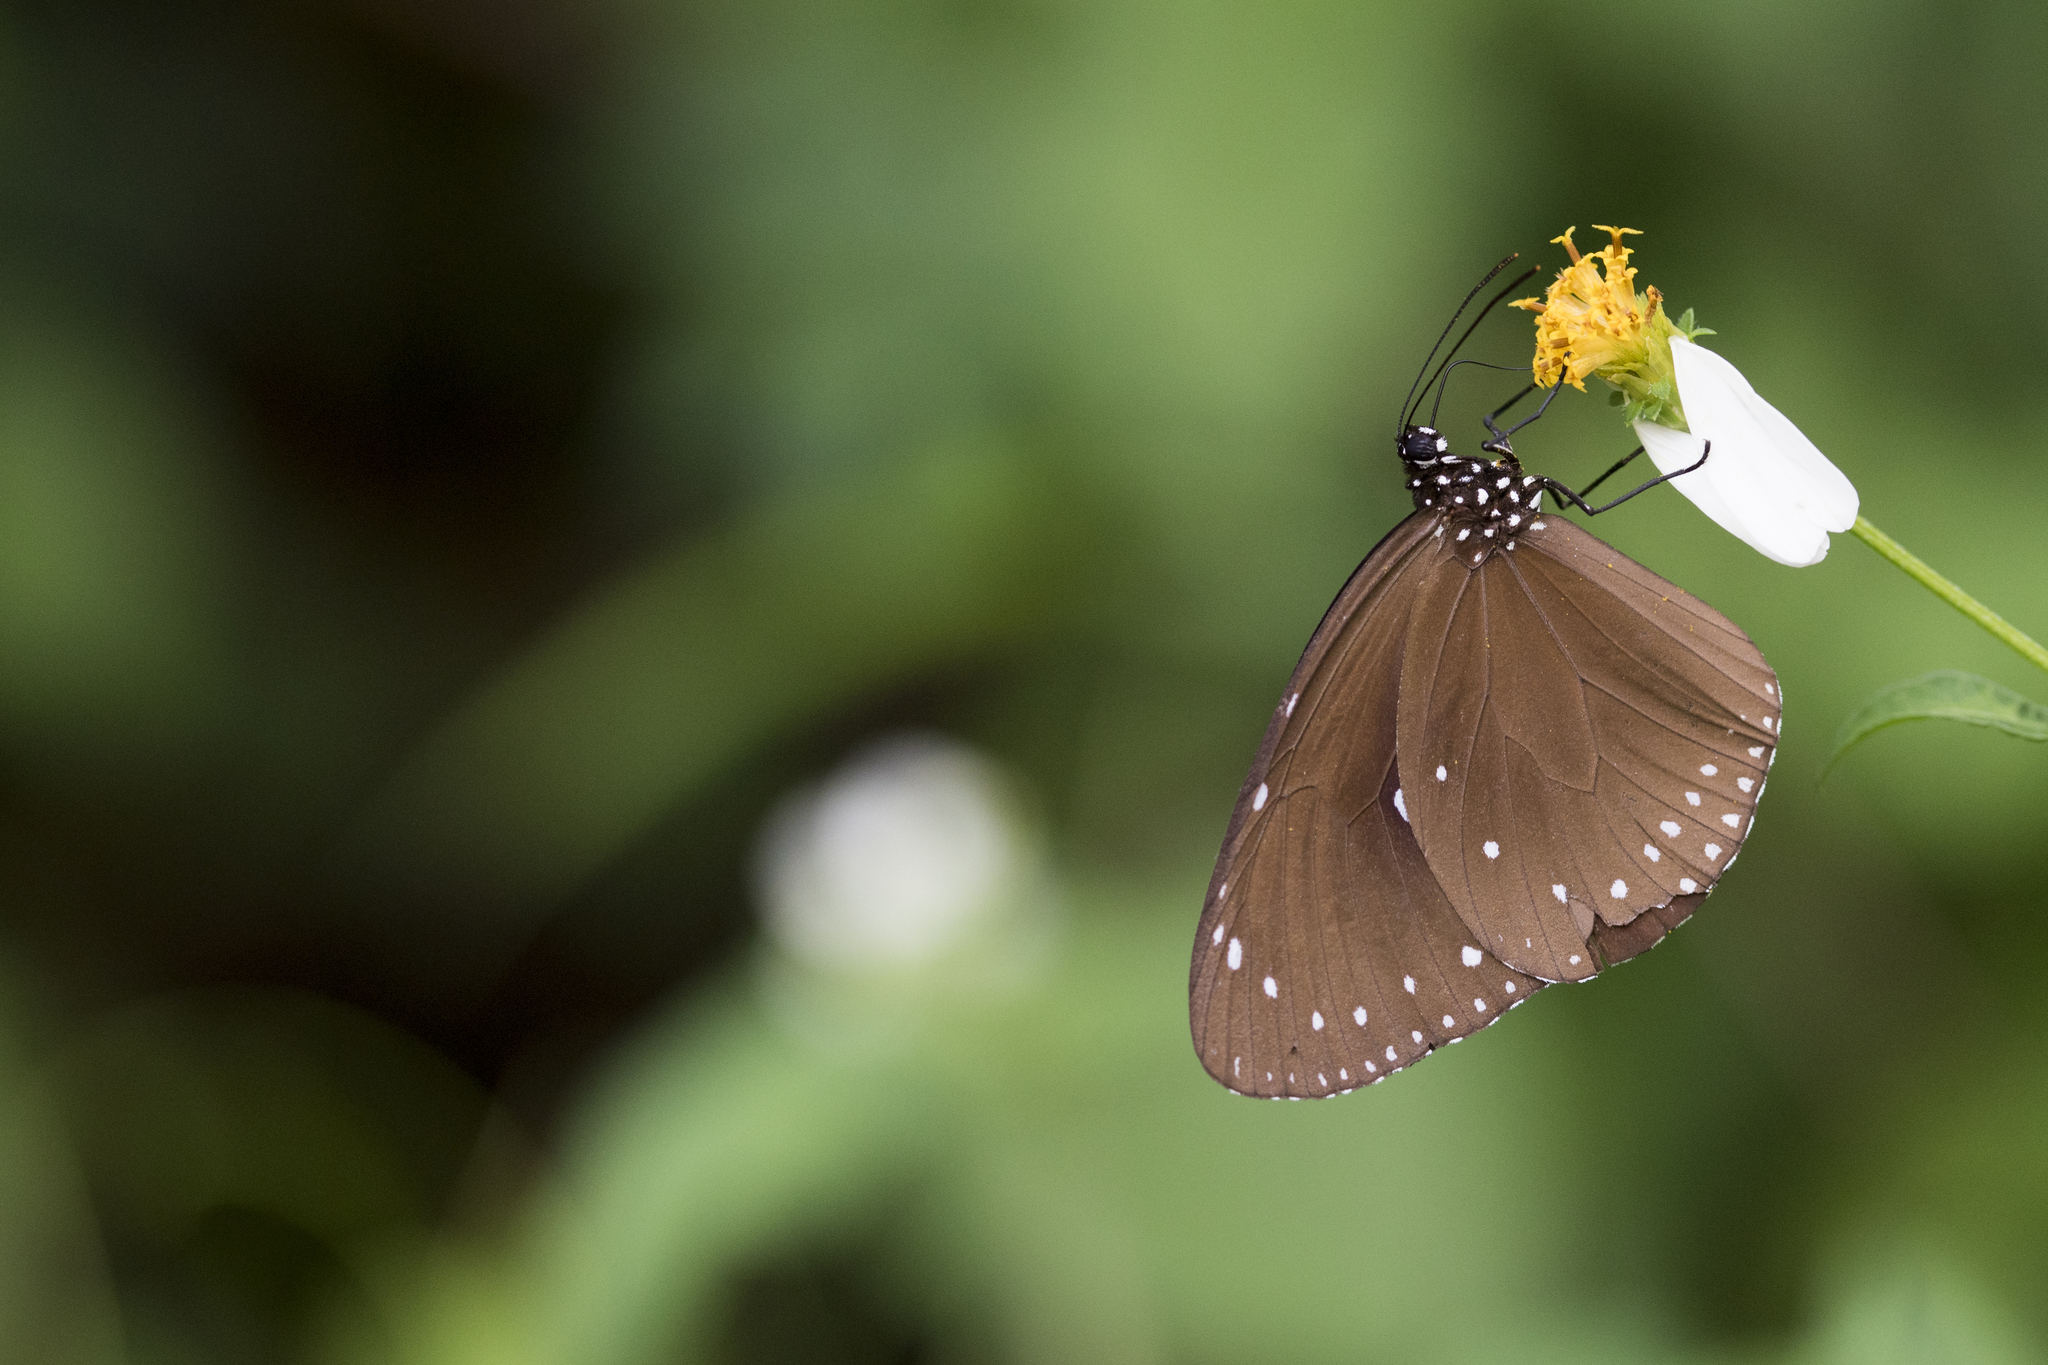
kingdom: Animalia
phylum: Arthropoda
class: Insecta
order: Lepidoptera
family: Nymphalidae
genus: Euploea
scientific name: Euploea tulliolus
